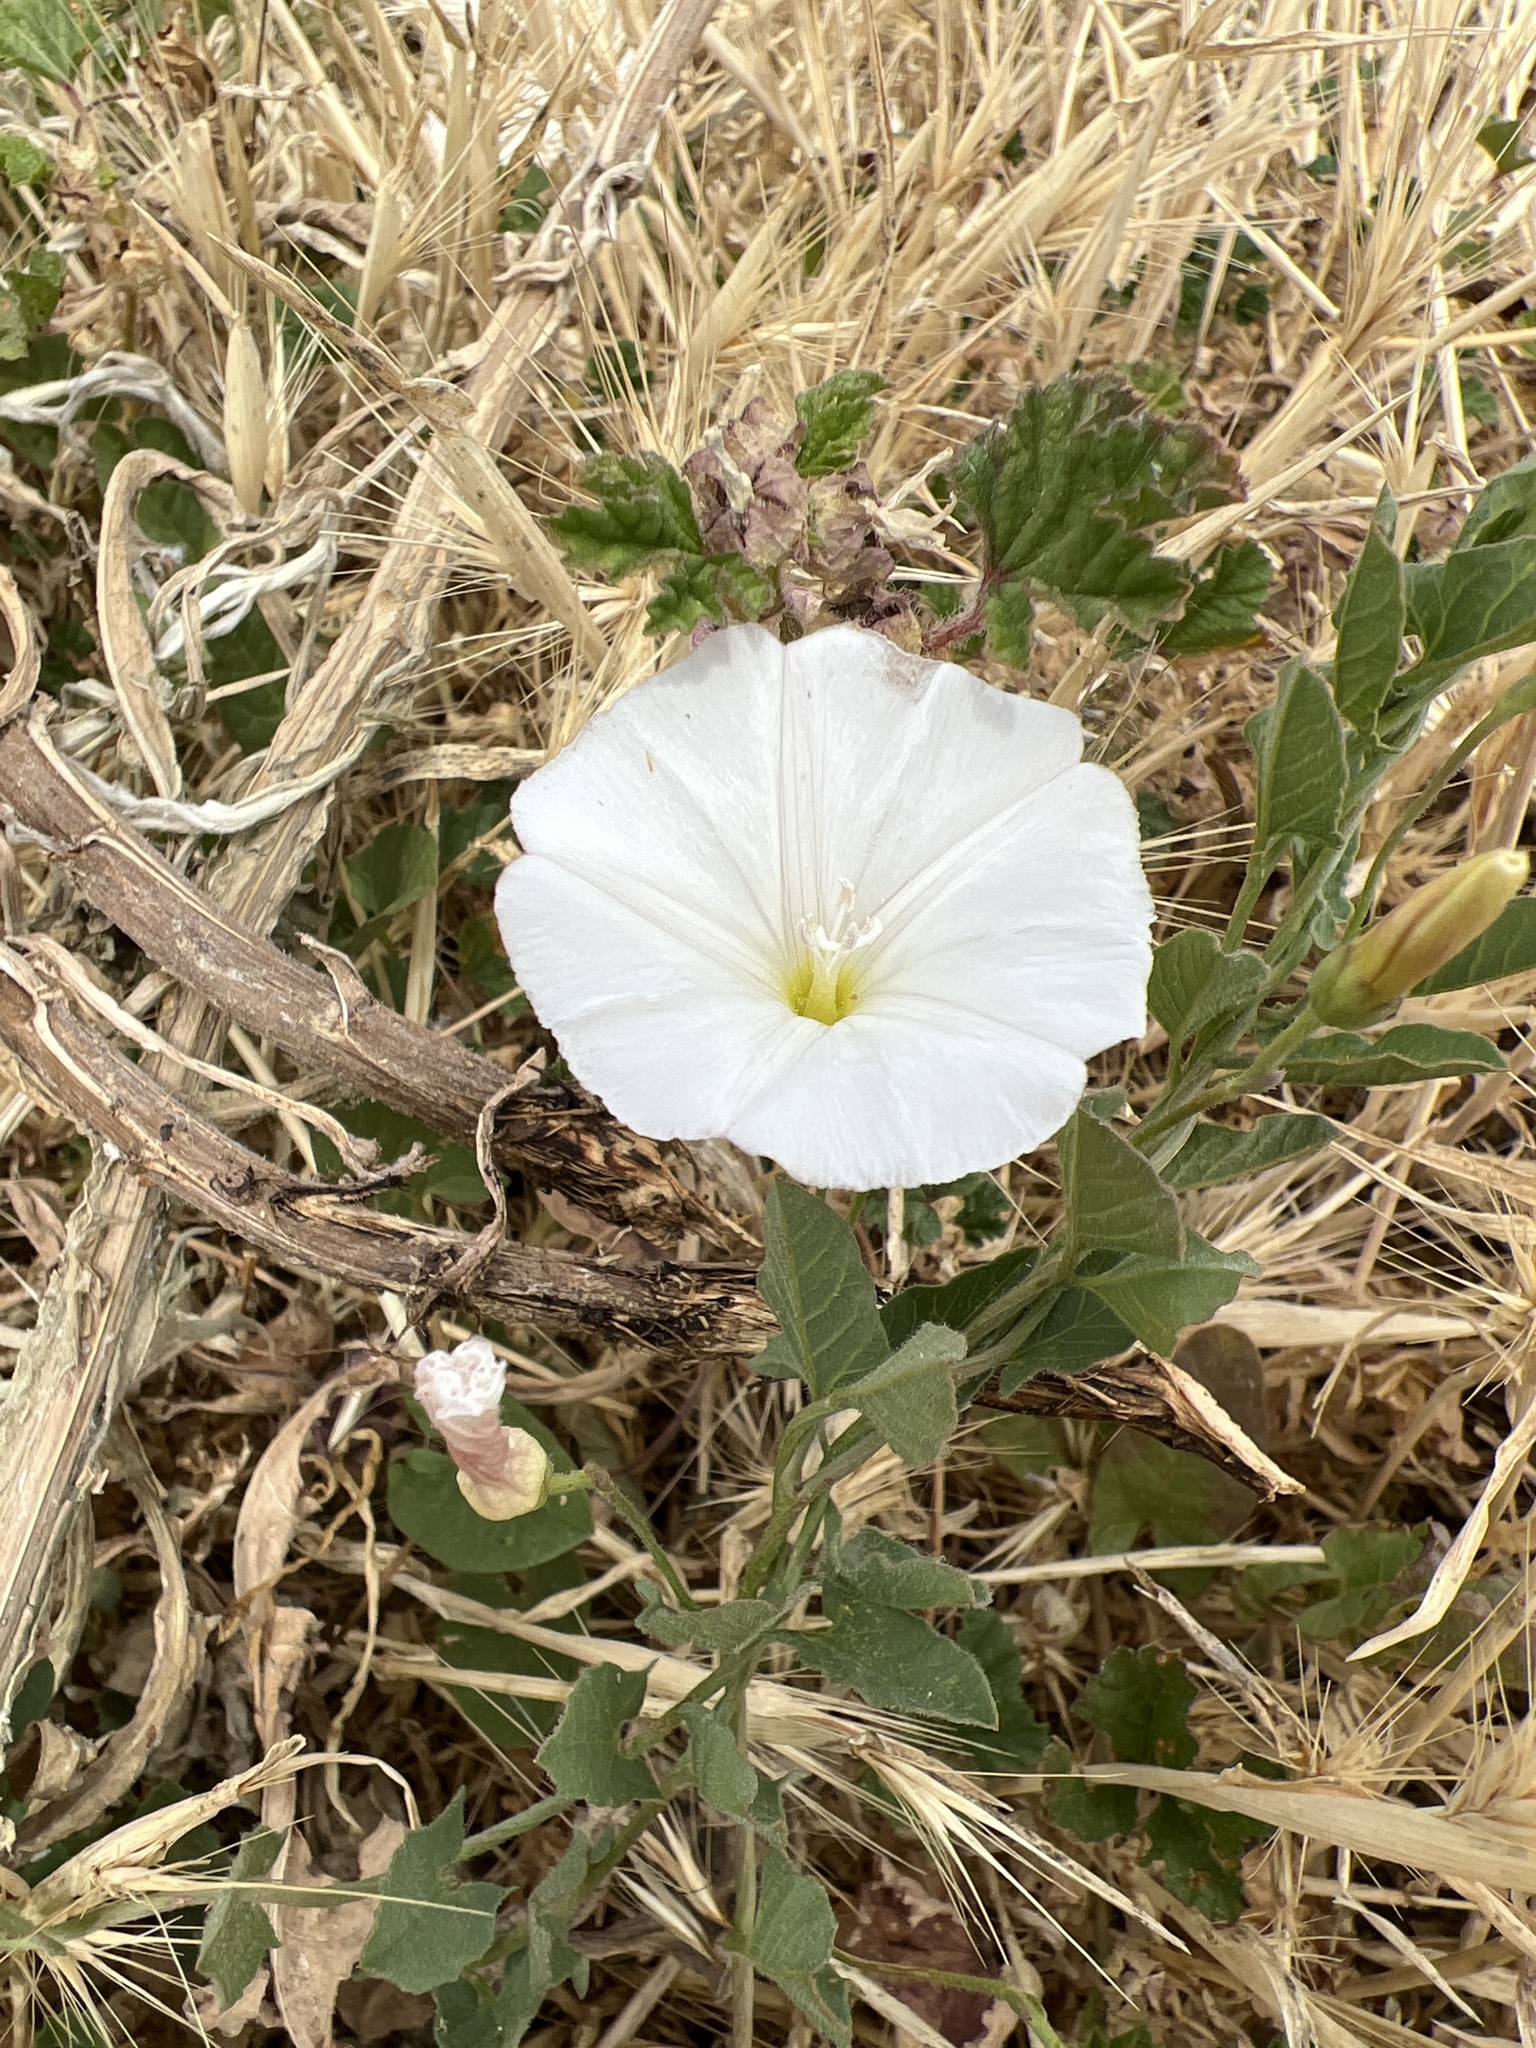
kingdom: Plantae
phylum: Tracheophyta
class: Magnoliopsida
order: Solanales
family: Convolvulaceae
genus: Convolvulus
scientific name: Convolvulus arvensis
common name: Field bindweed
